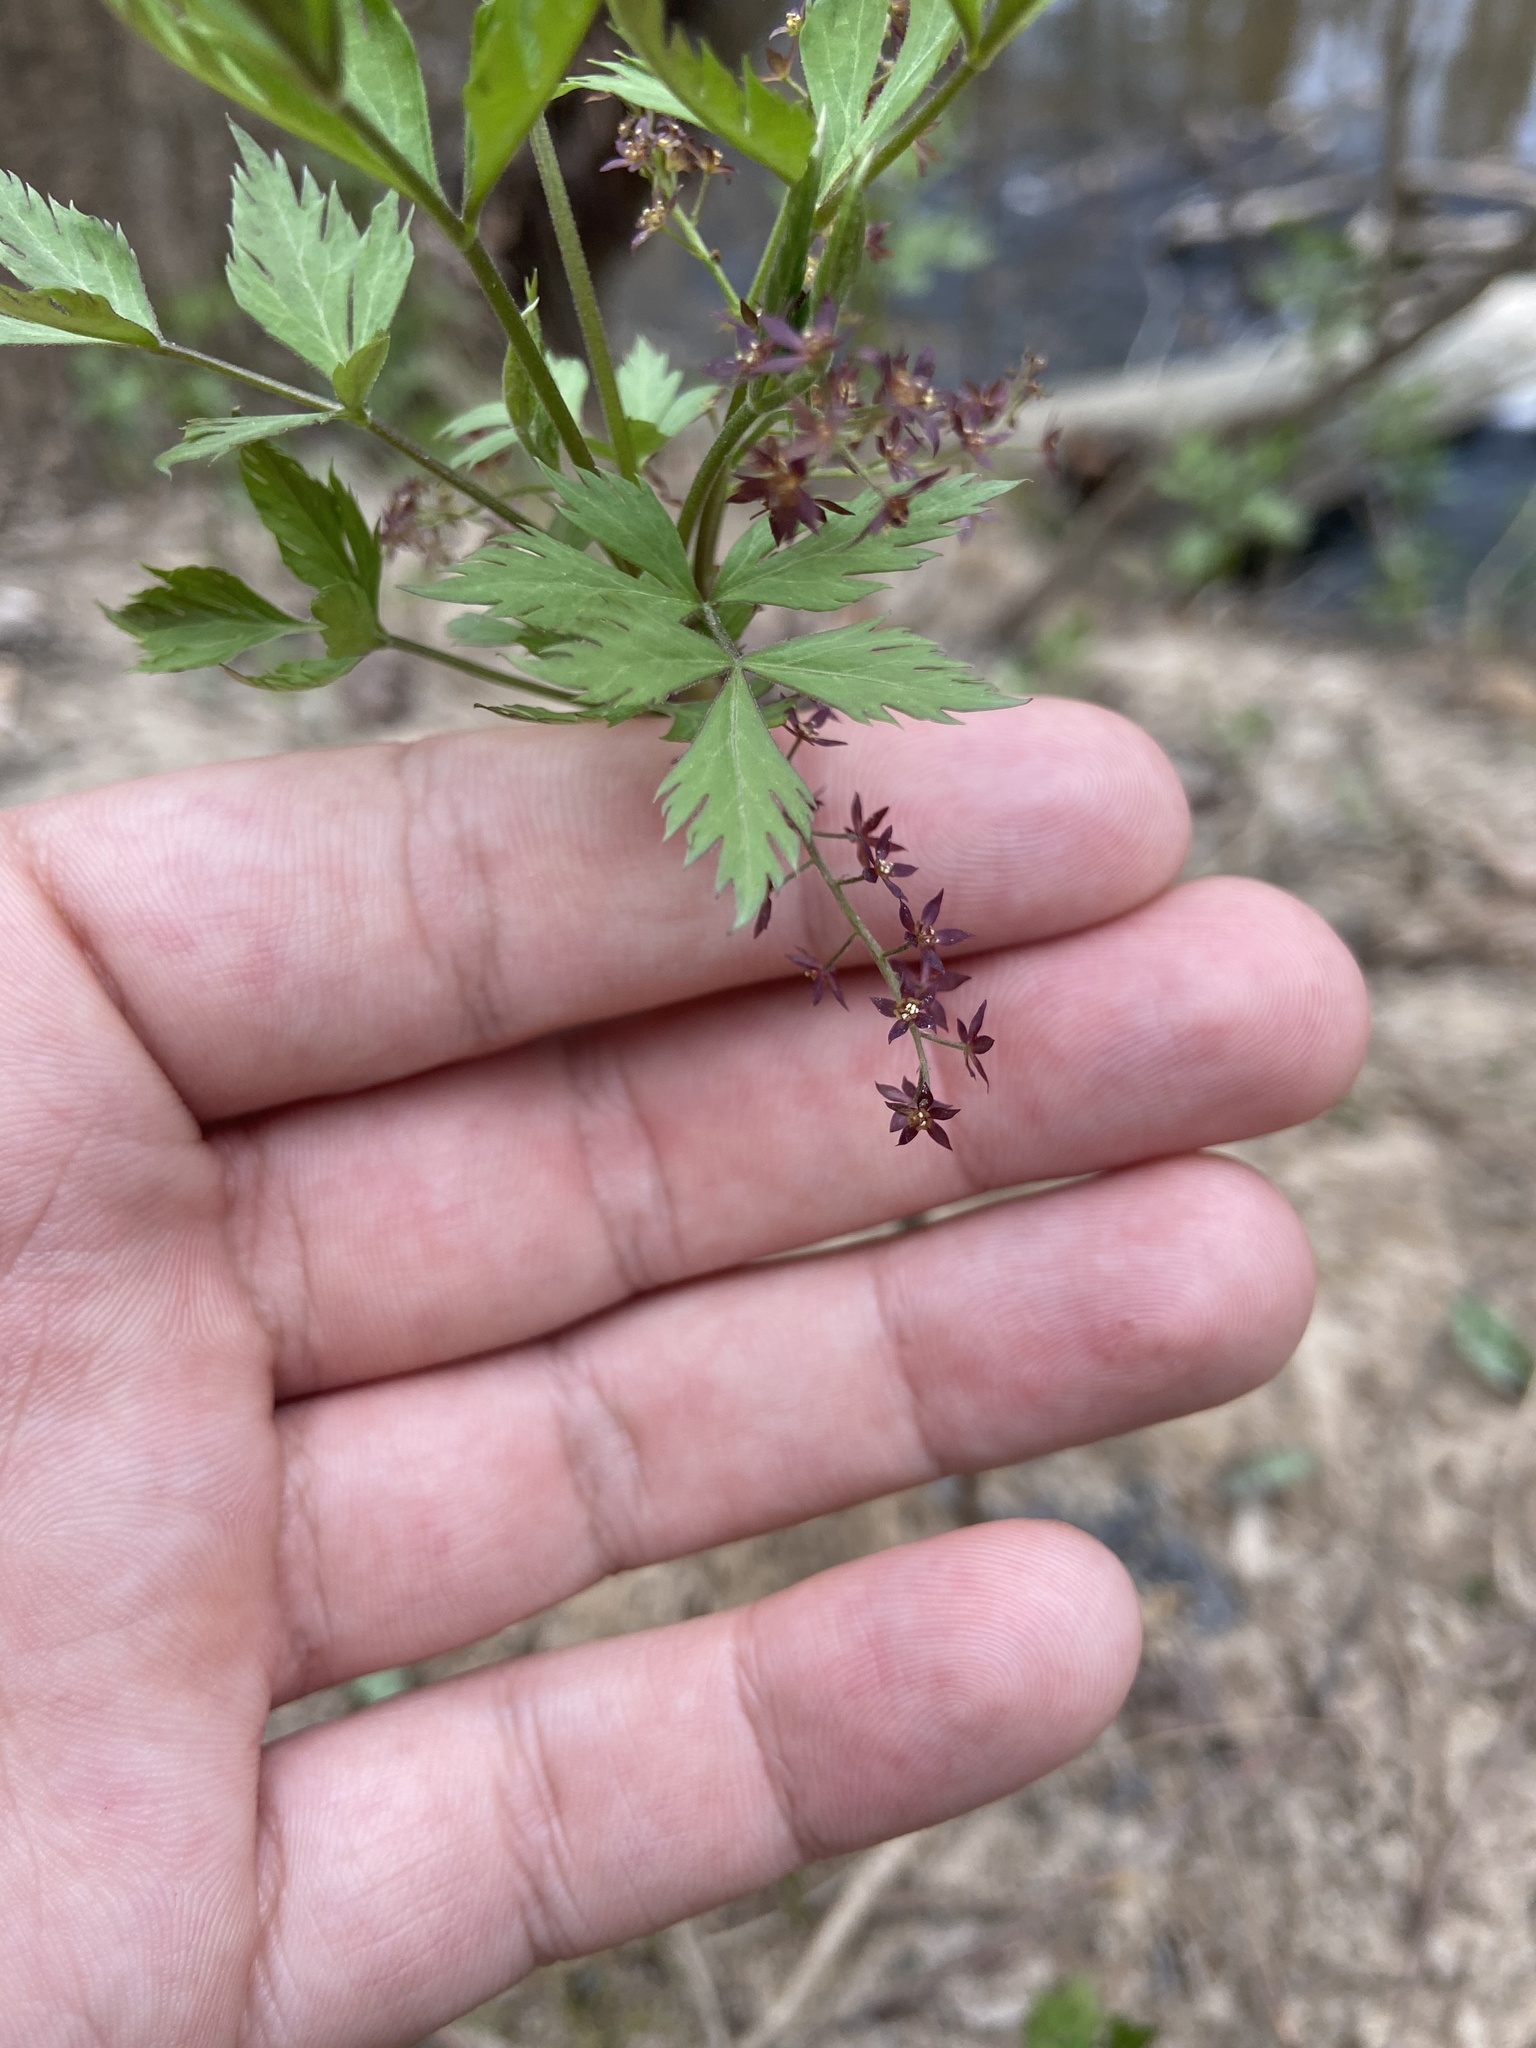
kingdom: Plantae
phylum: Tracheophyta
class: Magnoliopsida
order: Ranunculales
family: Ranunculaceae
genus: Xanthorhiza
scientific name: Xanthorhiza simplicissima
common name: Yellowroot
